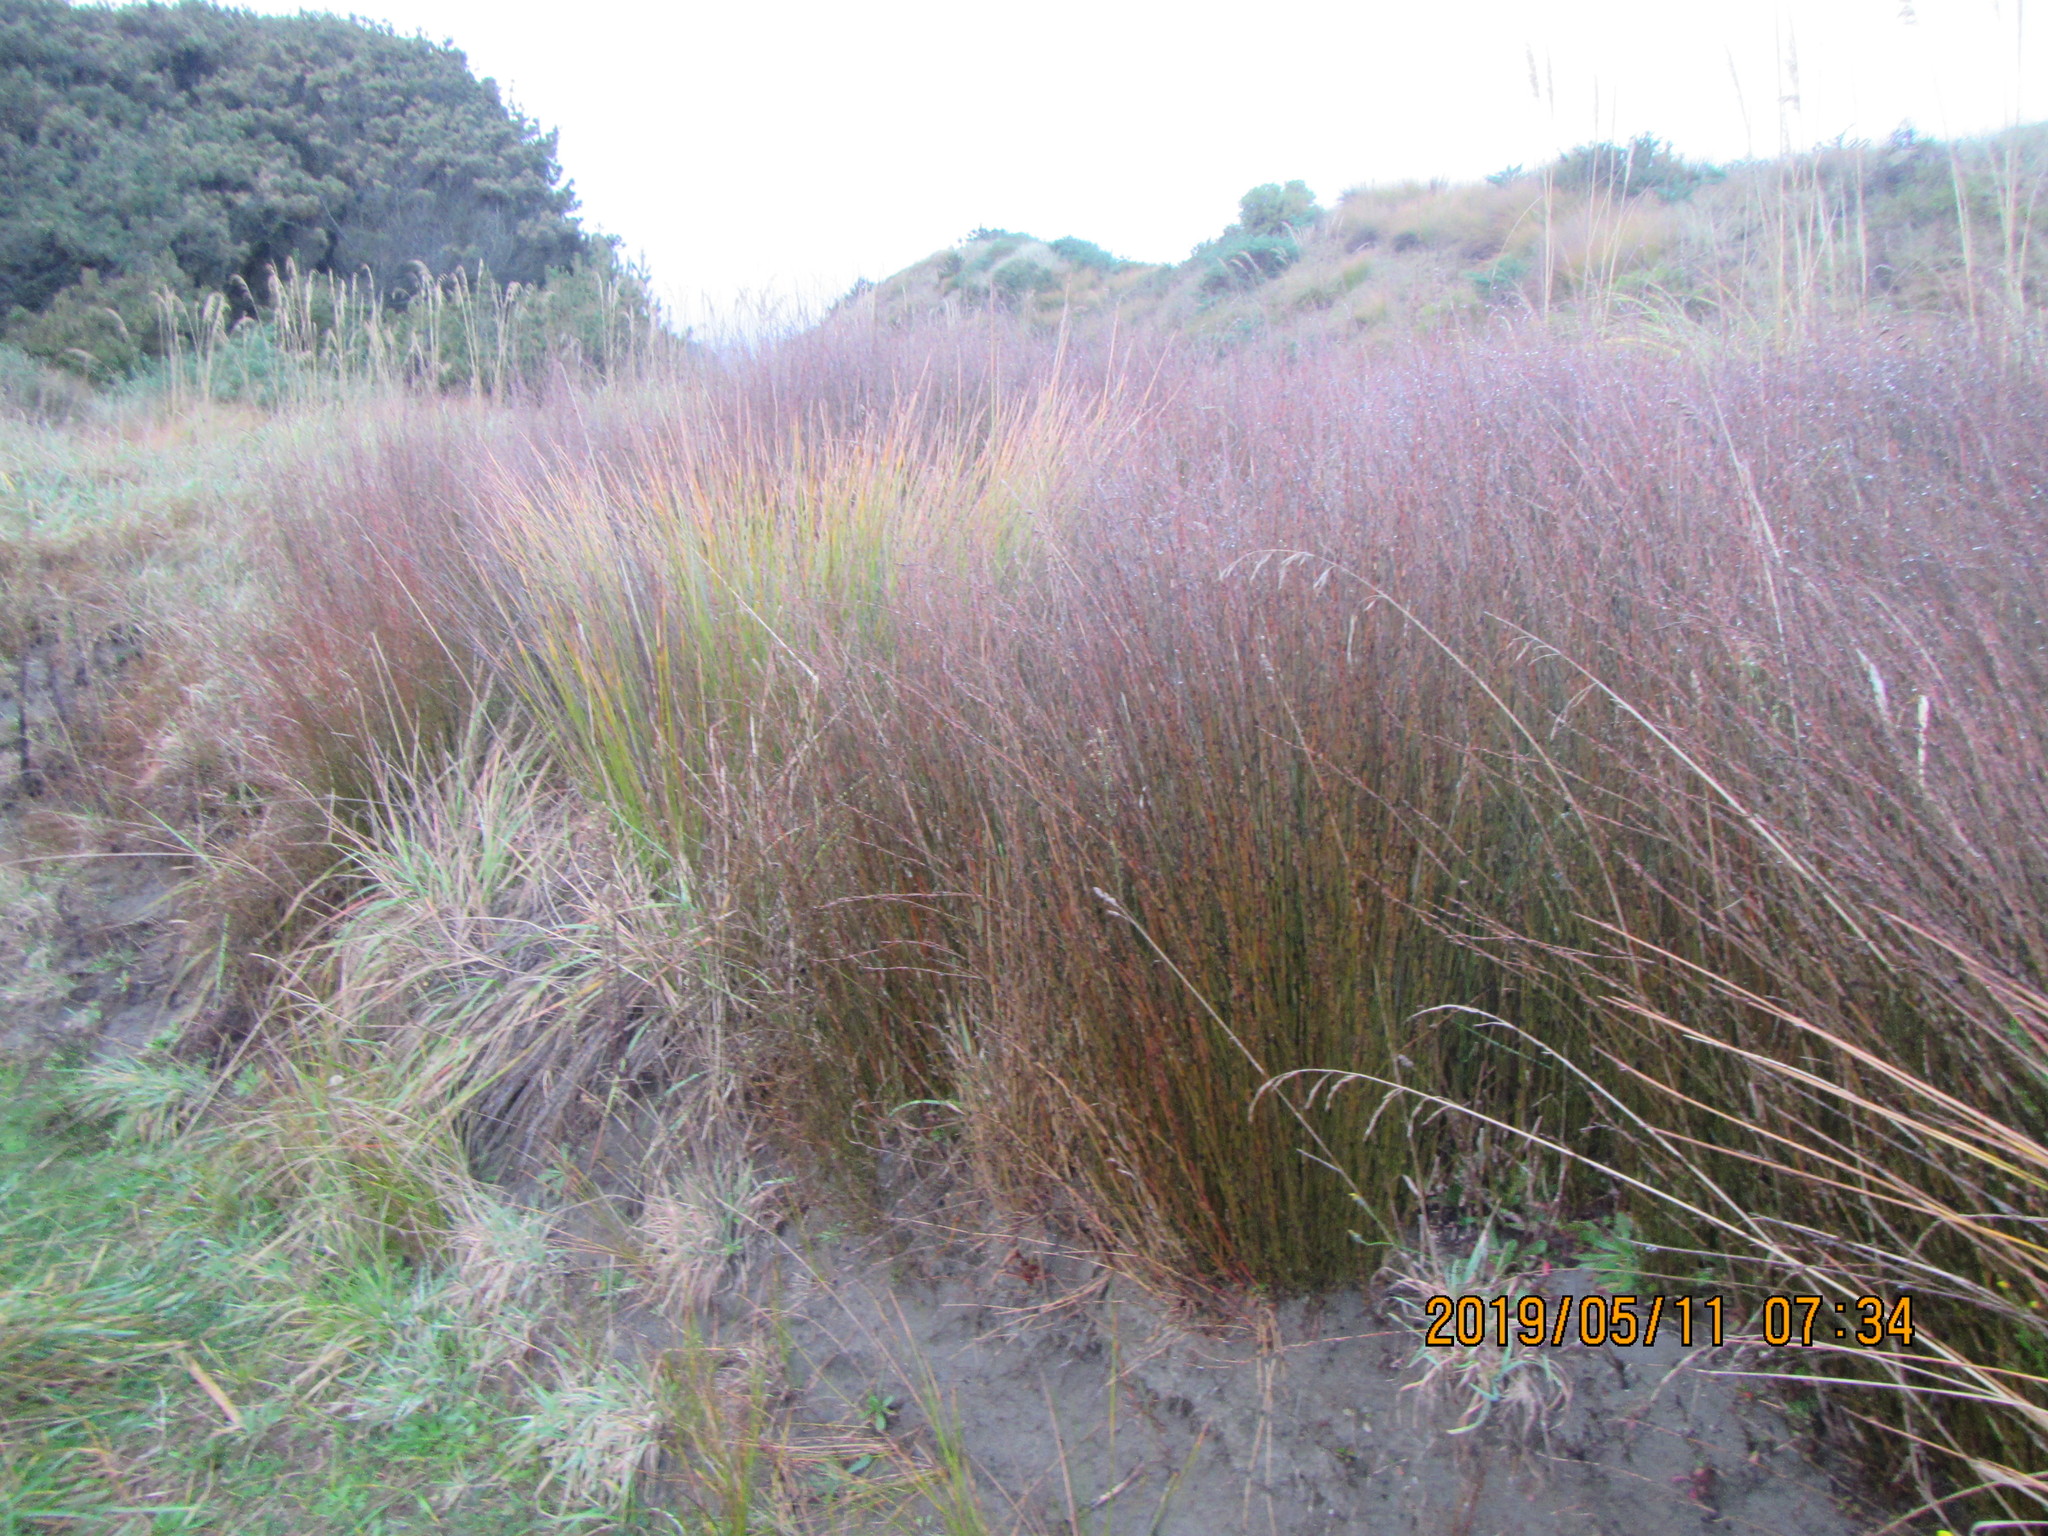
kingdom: Plantae
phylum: Tracheophyta
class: Liliopsida
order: Poales
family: Restionaceae
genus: Apodasmia
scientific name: Apodasmia similis
